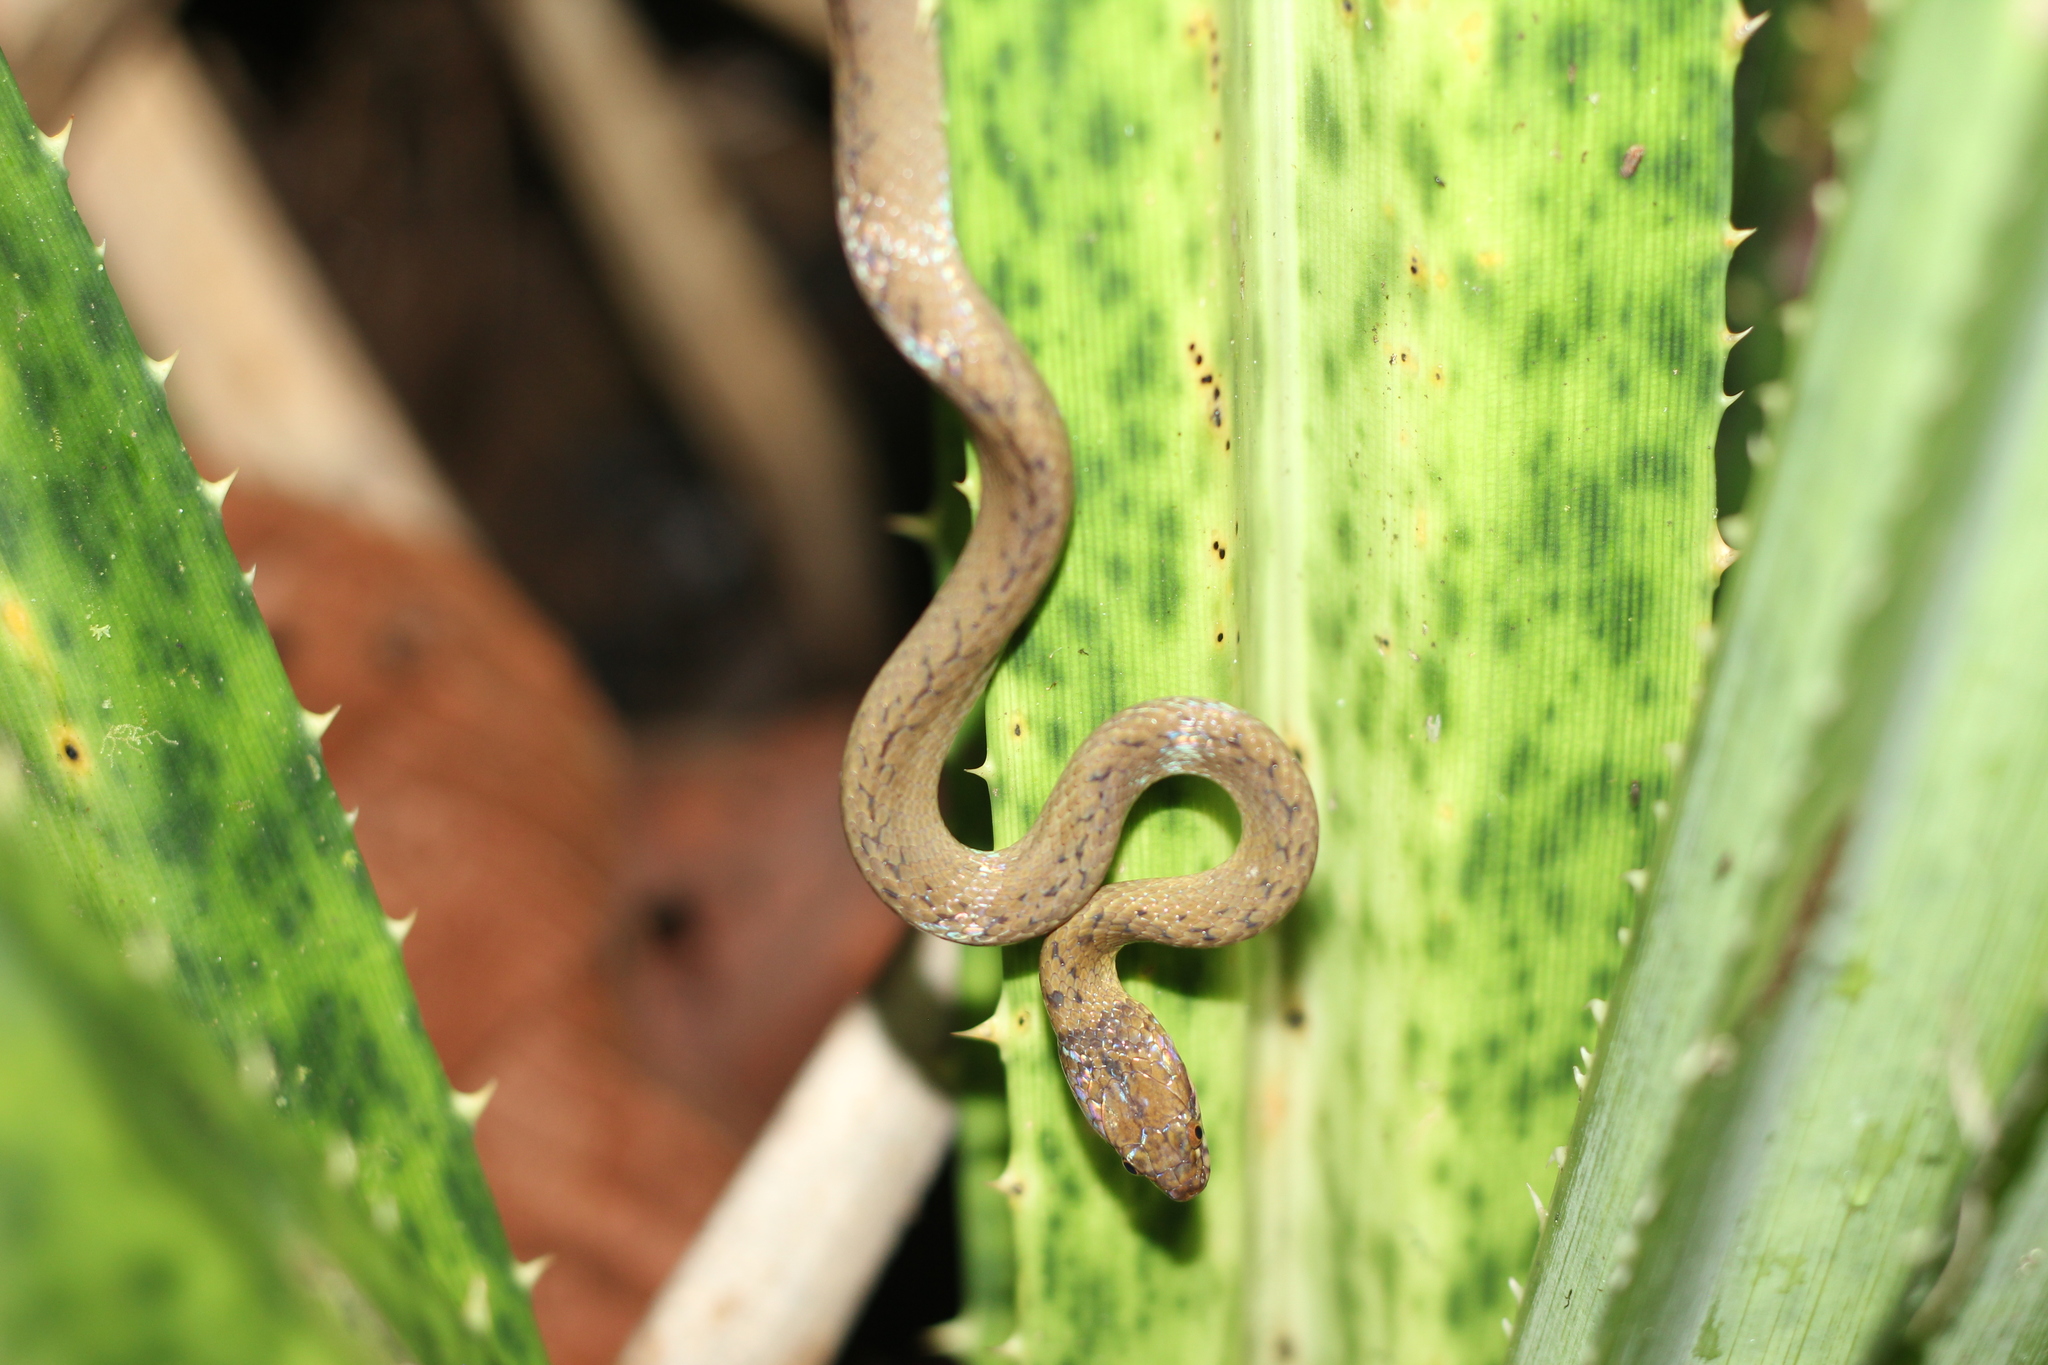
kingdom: Animalia
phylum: Chordata
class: Squamata
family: Pseudoxyrhophiidae
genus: Compsophis
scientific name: Compsophis laphystius
